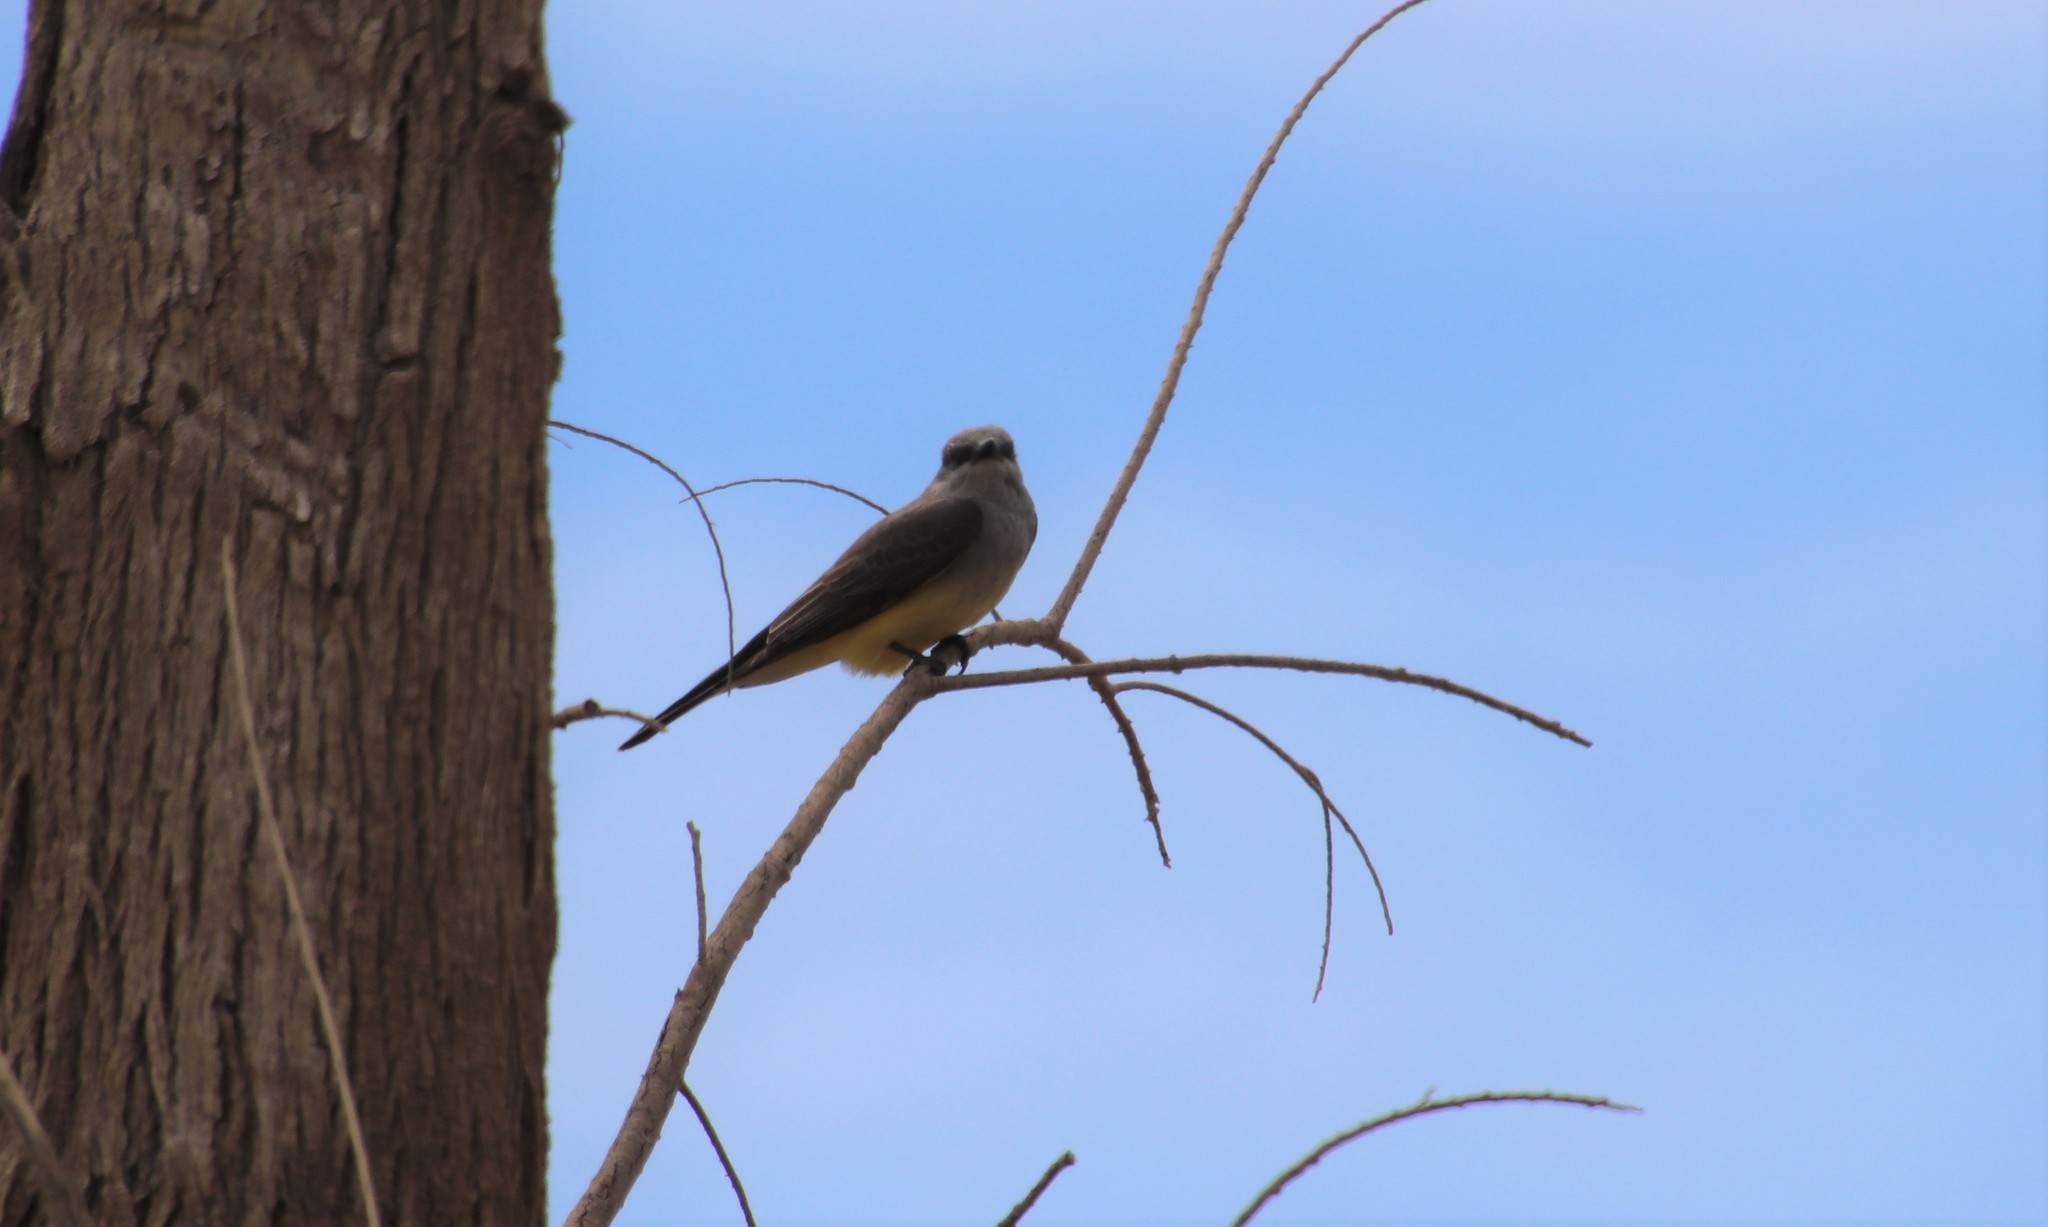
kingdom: Animalia
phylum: Chordata
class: Aves
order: Passeriformes
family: Tyrannidae
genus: Tyrannus
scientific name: Tyrannus verticalis
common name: Western kingbird
